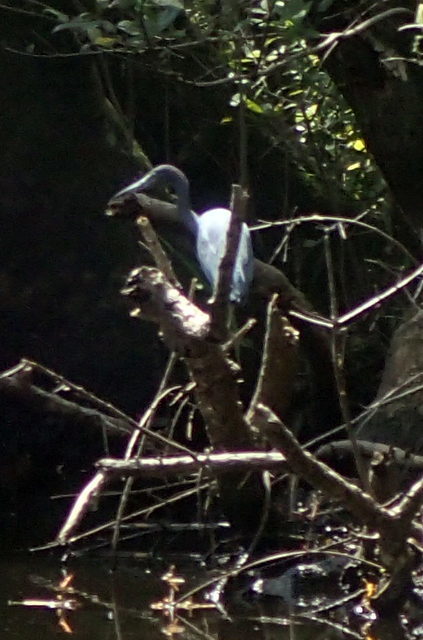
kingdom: Animalia
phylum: Chordata
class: Aves
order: Pelecaniformes
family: Ardeidae
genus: Egretta
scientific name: Egretta caerulea
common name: Little blue heron
